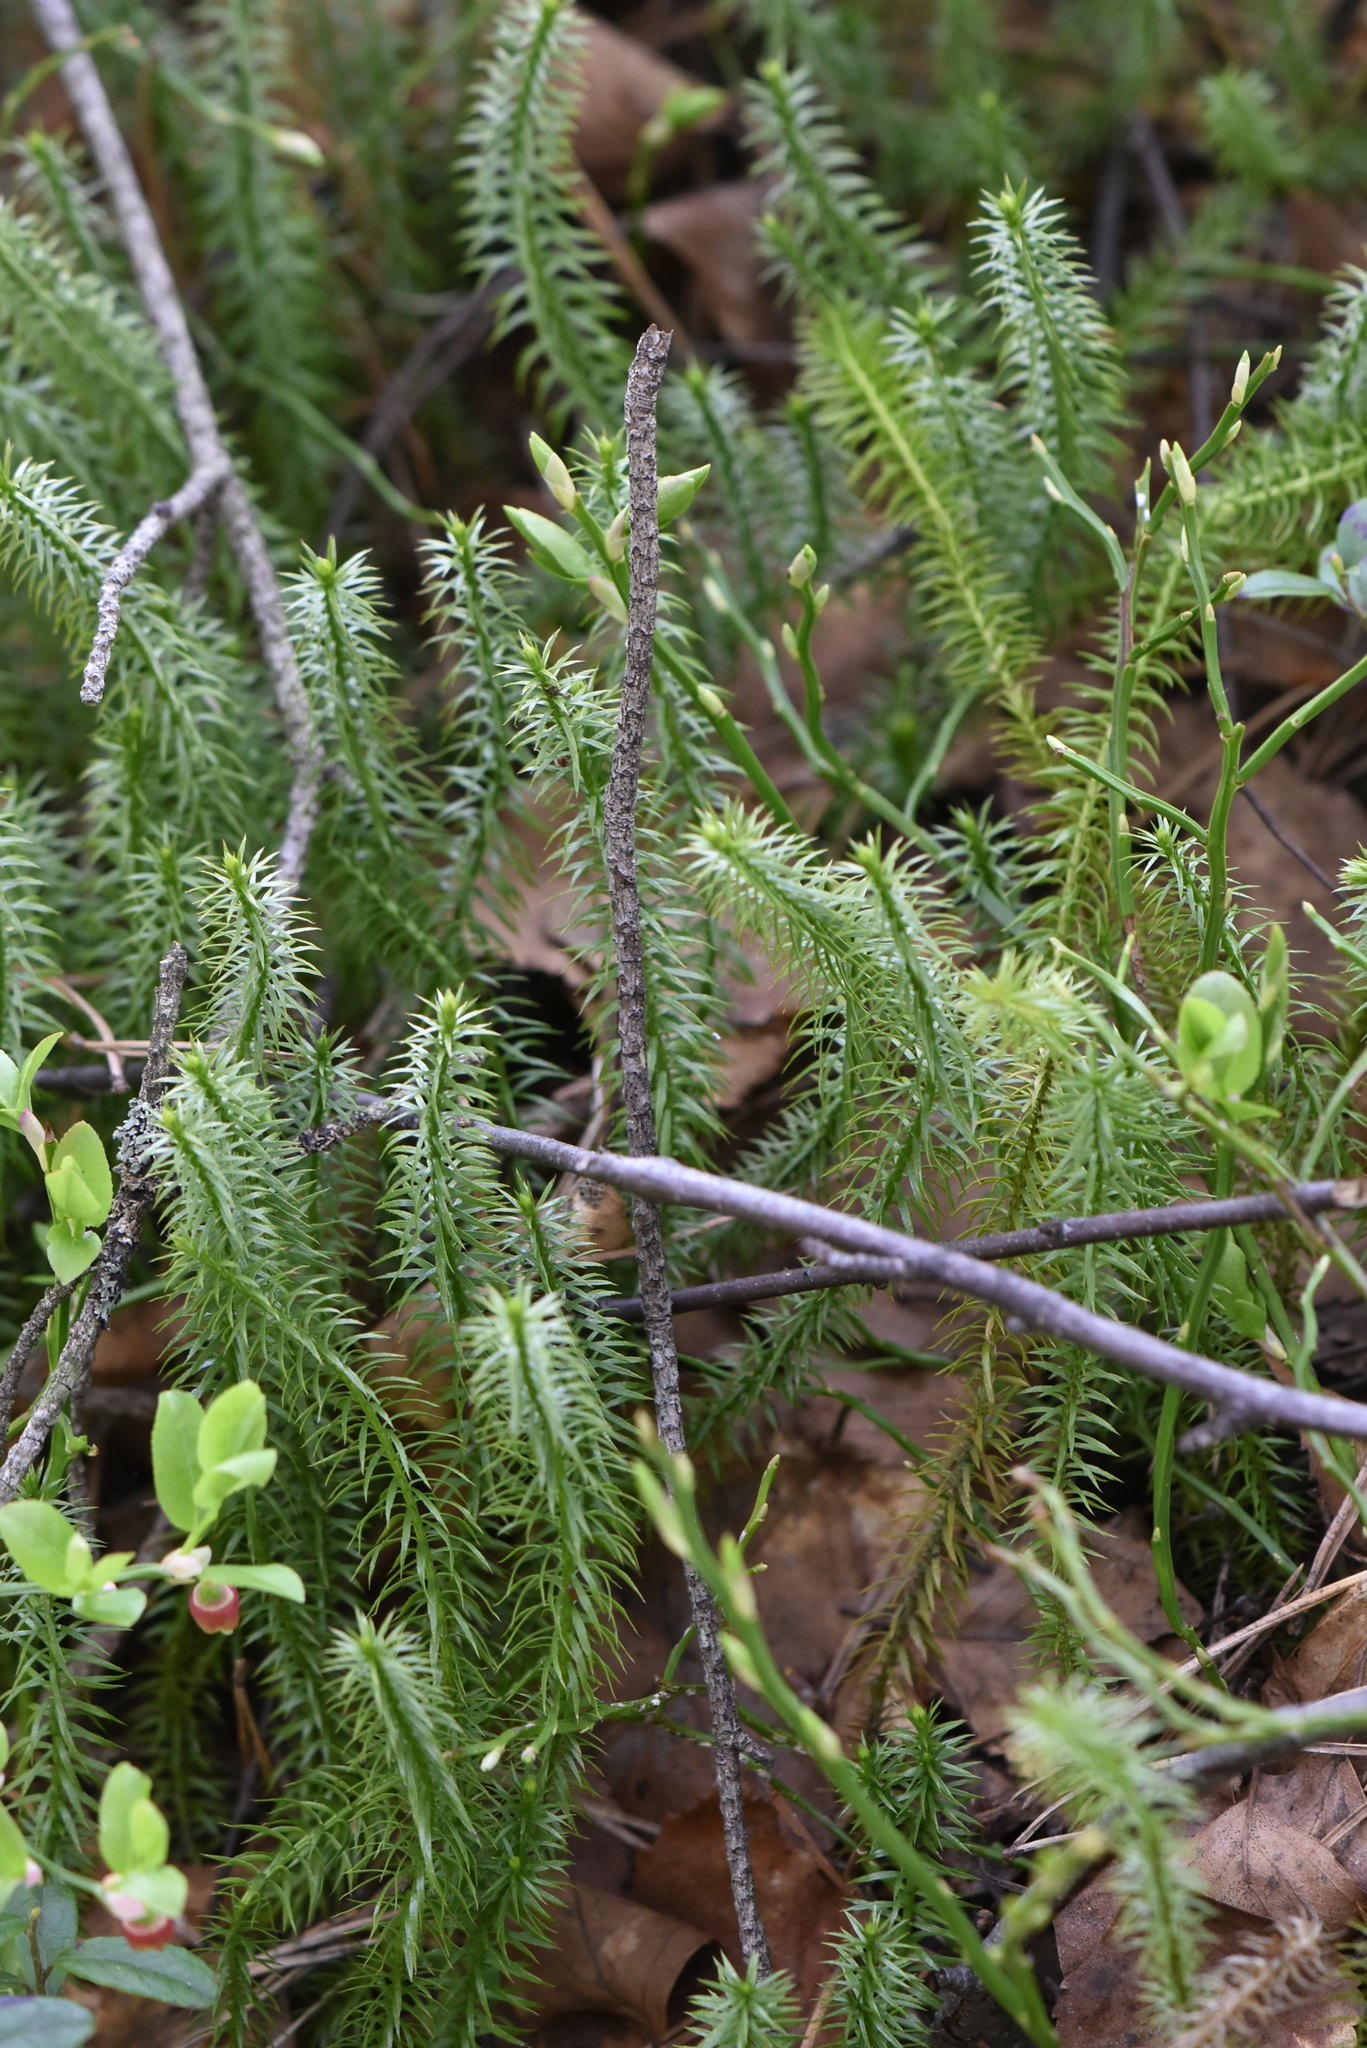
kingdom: Plantae
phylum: Tracheophyta
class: Lycopodiopsida
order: Lycopodiales
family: Lycopodiaceae
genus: Spinulum
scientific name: Spinulum annotinum
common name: Interrupted club-moss
